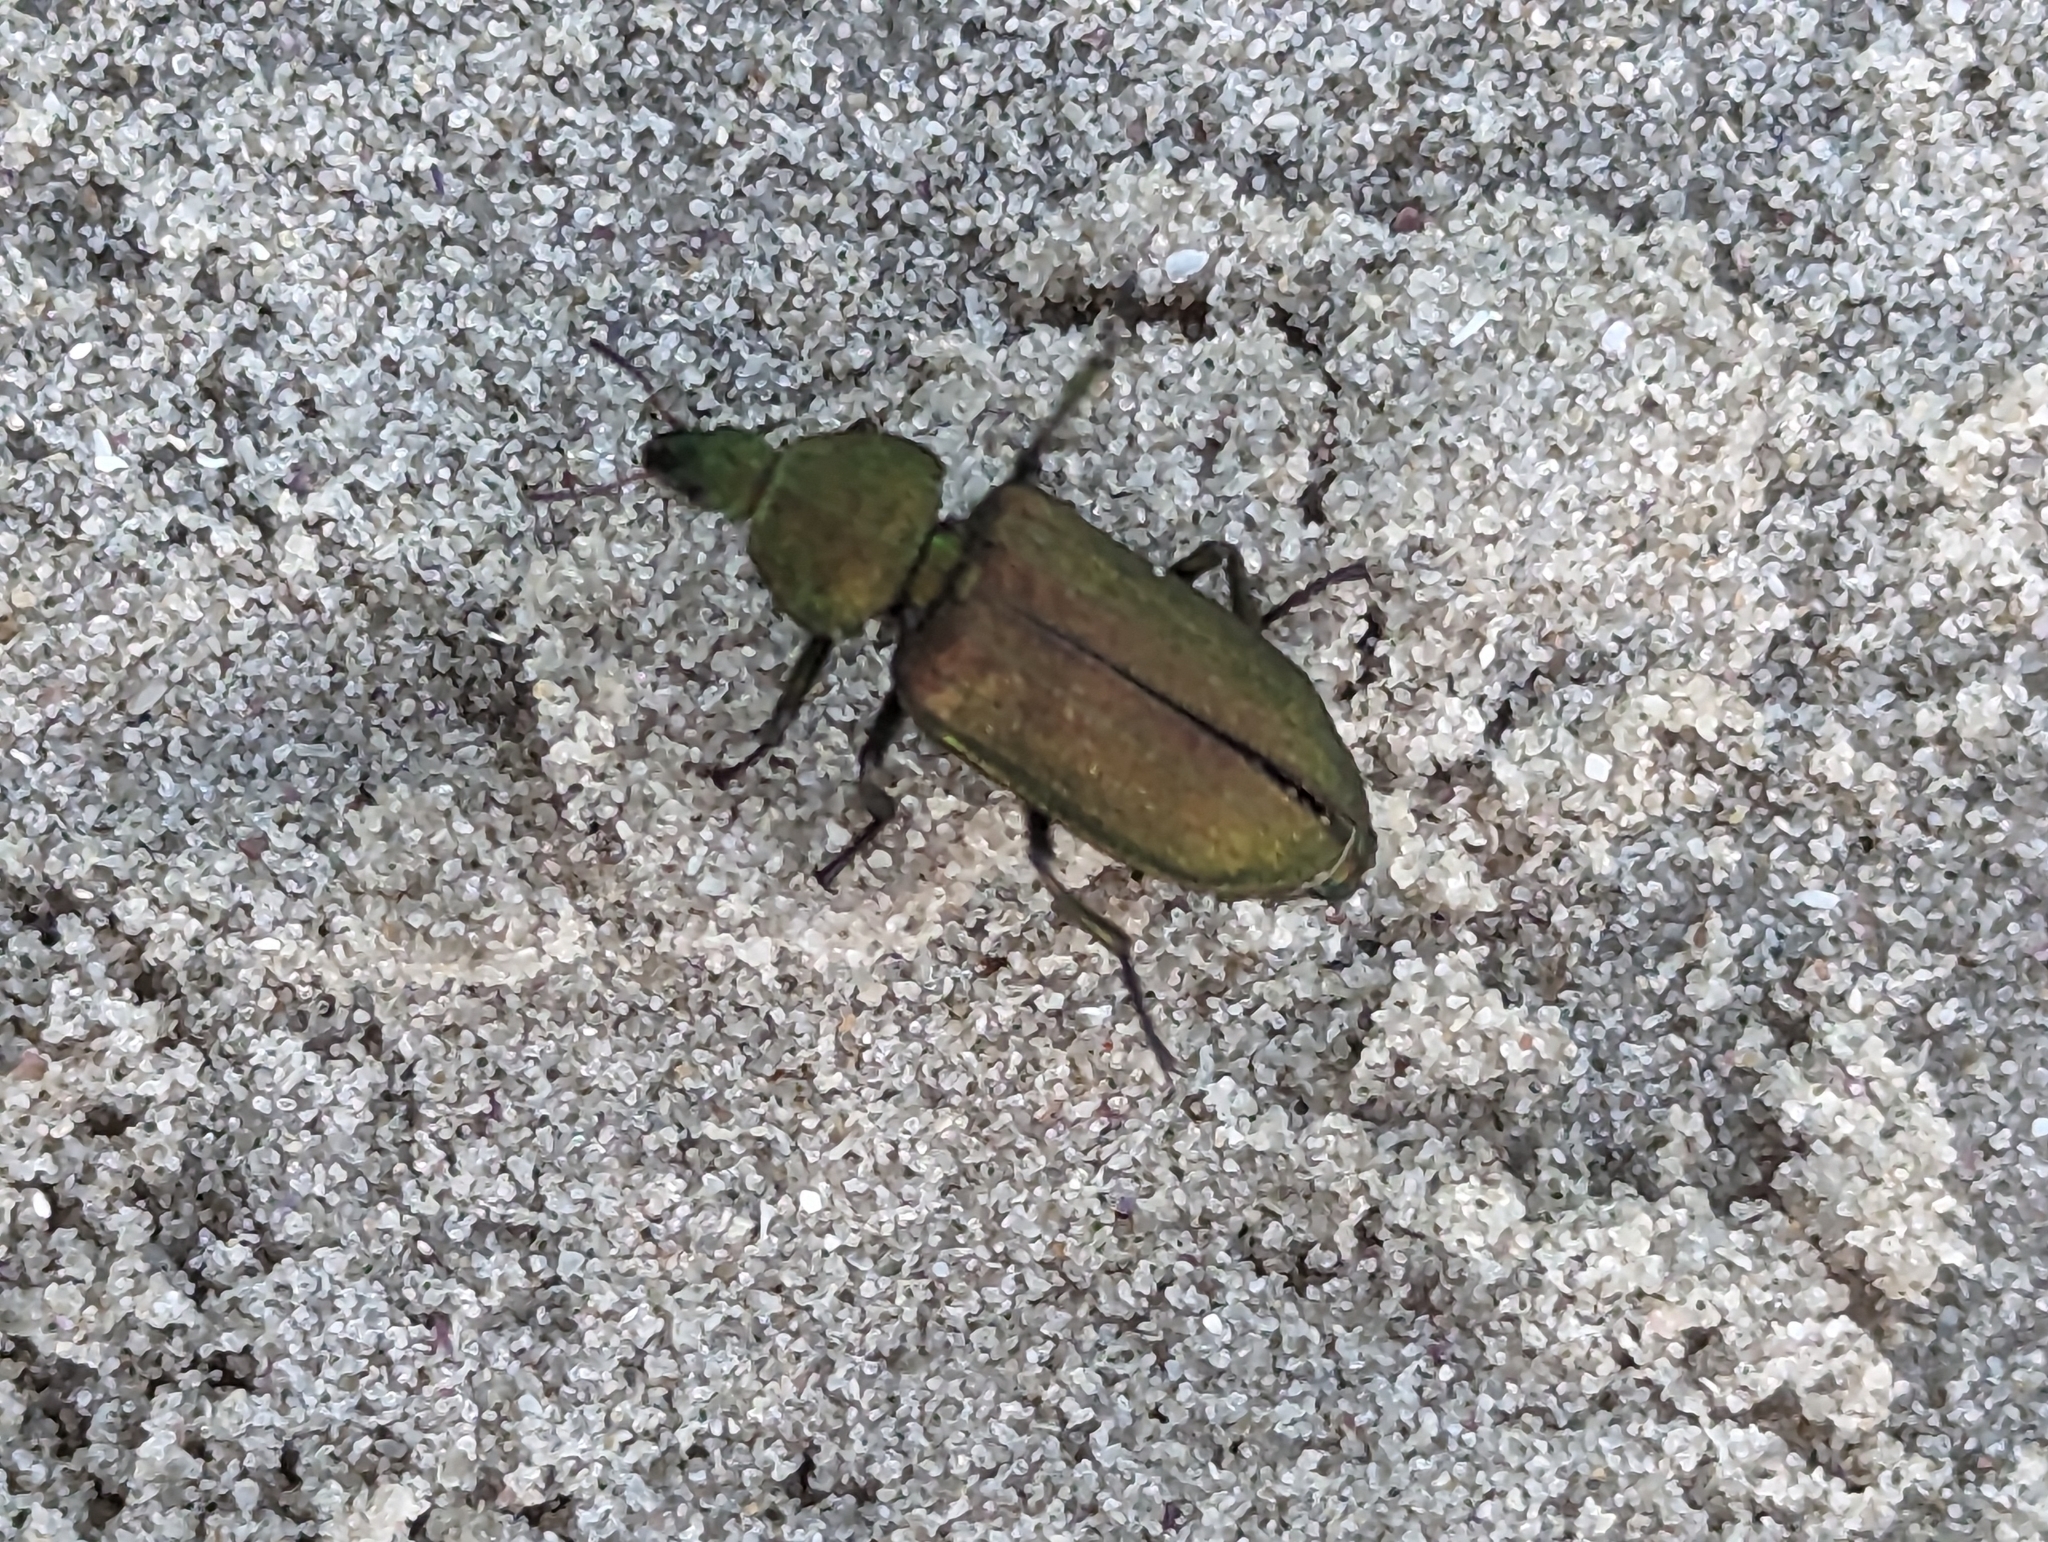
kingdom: Animalia
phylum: Arthropoda
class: Insecta
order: Coleoptera
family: Melyridae
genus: Melyris
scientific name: Melyris viridis
